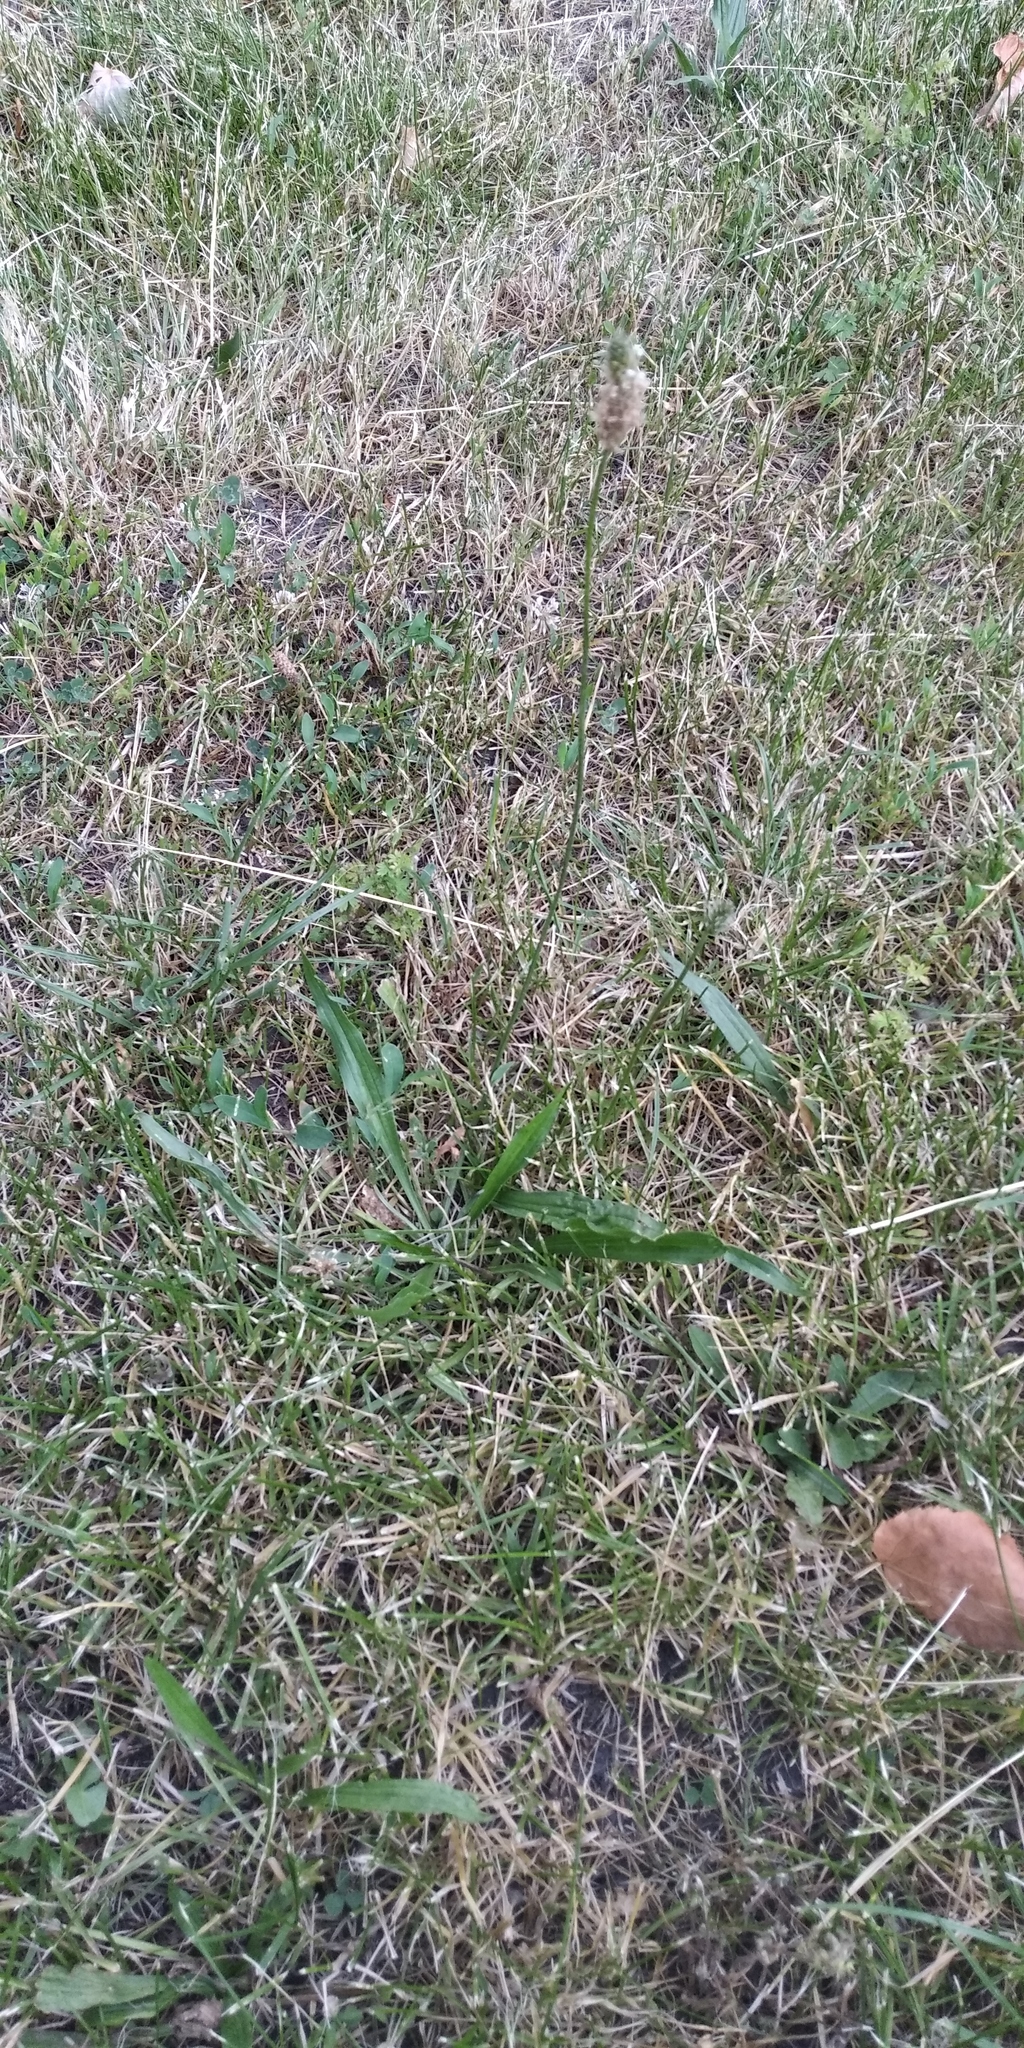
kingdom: Plantae
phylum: Tracheophyta
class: Magnoliopsida
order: Lamiales
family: Plantaginaceae
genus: Plantago
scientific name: Plantago lanceolata
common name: Ribwort plantain
